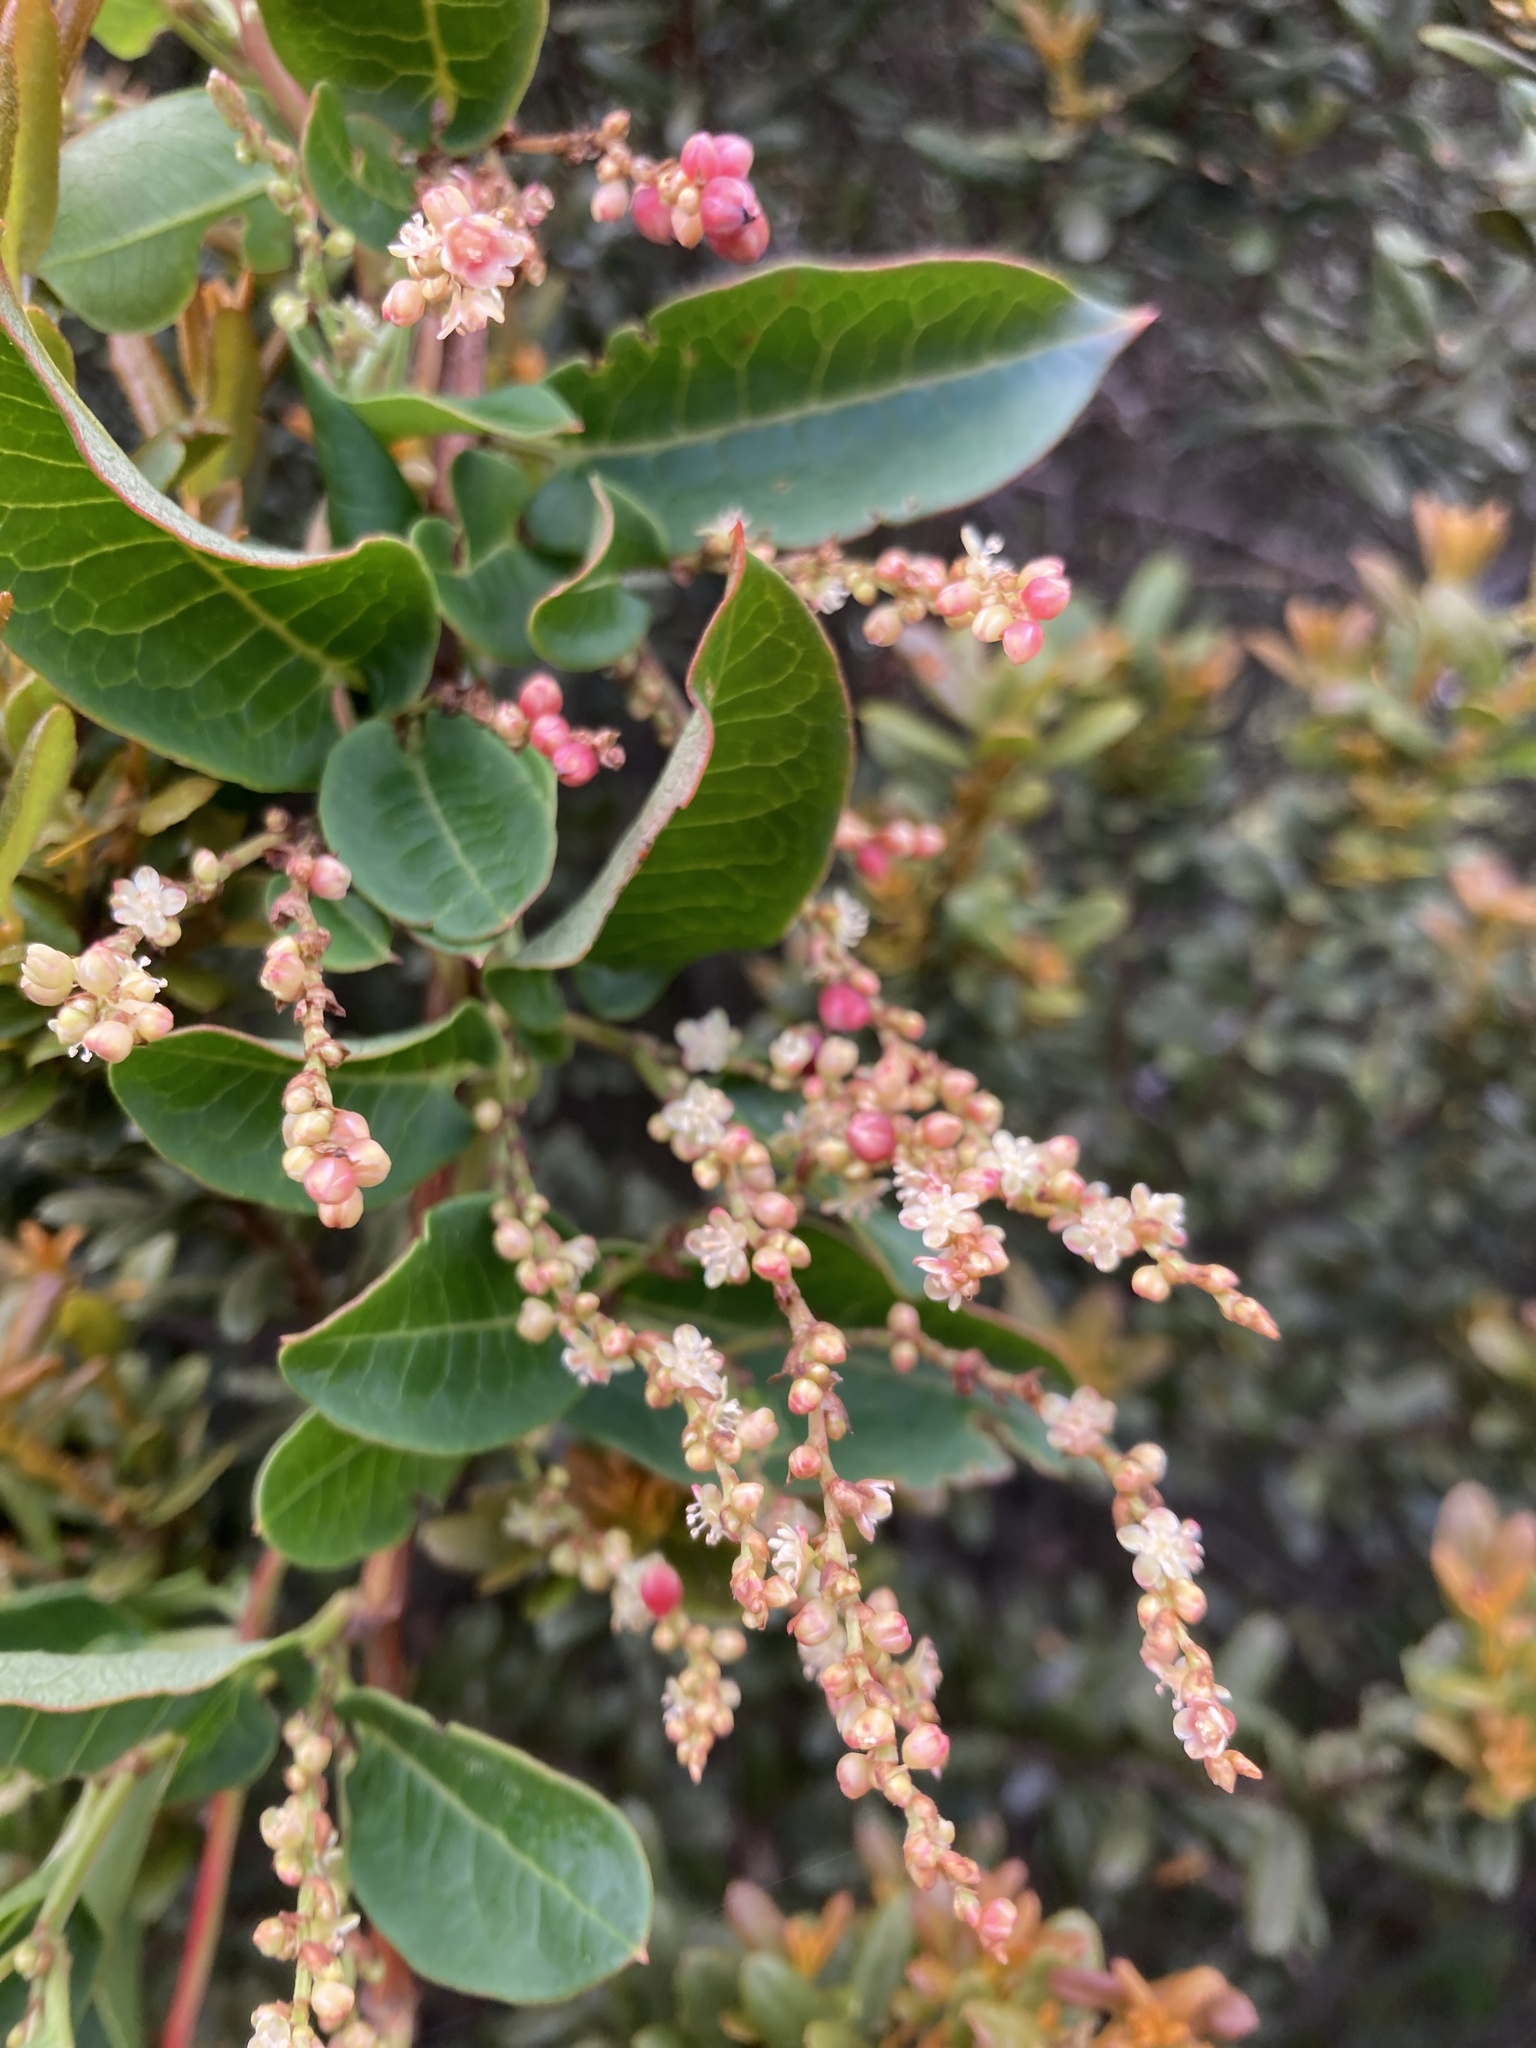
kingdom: Plantae
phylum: Tracheophyta
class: Magnoliopsida
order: Caryophyllales
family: Polygonaceae
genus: Muehlenbeckia
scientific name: Muehlenbeckia tamnifolia
